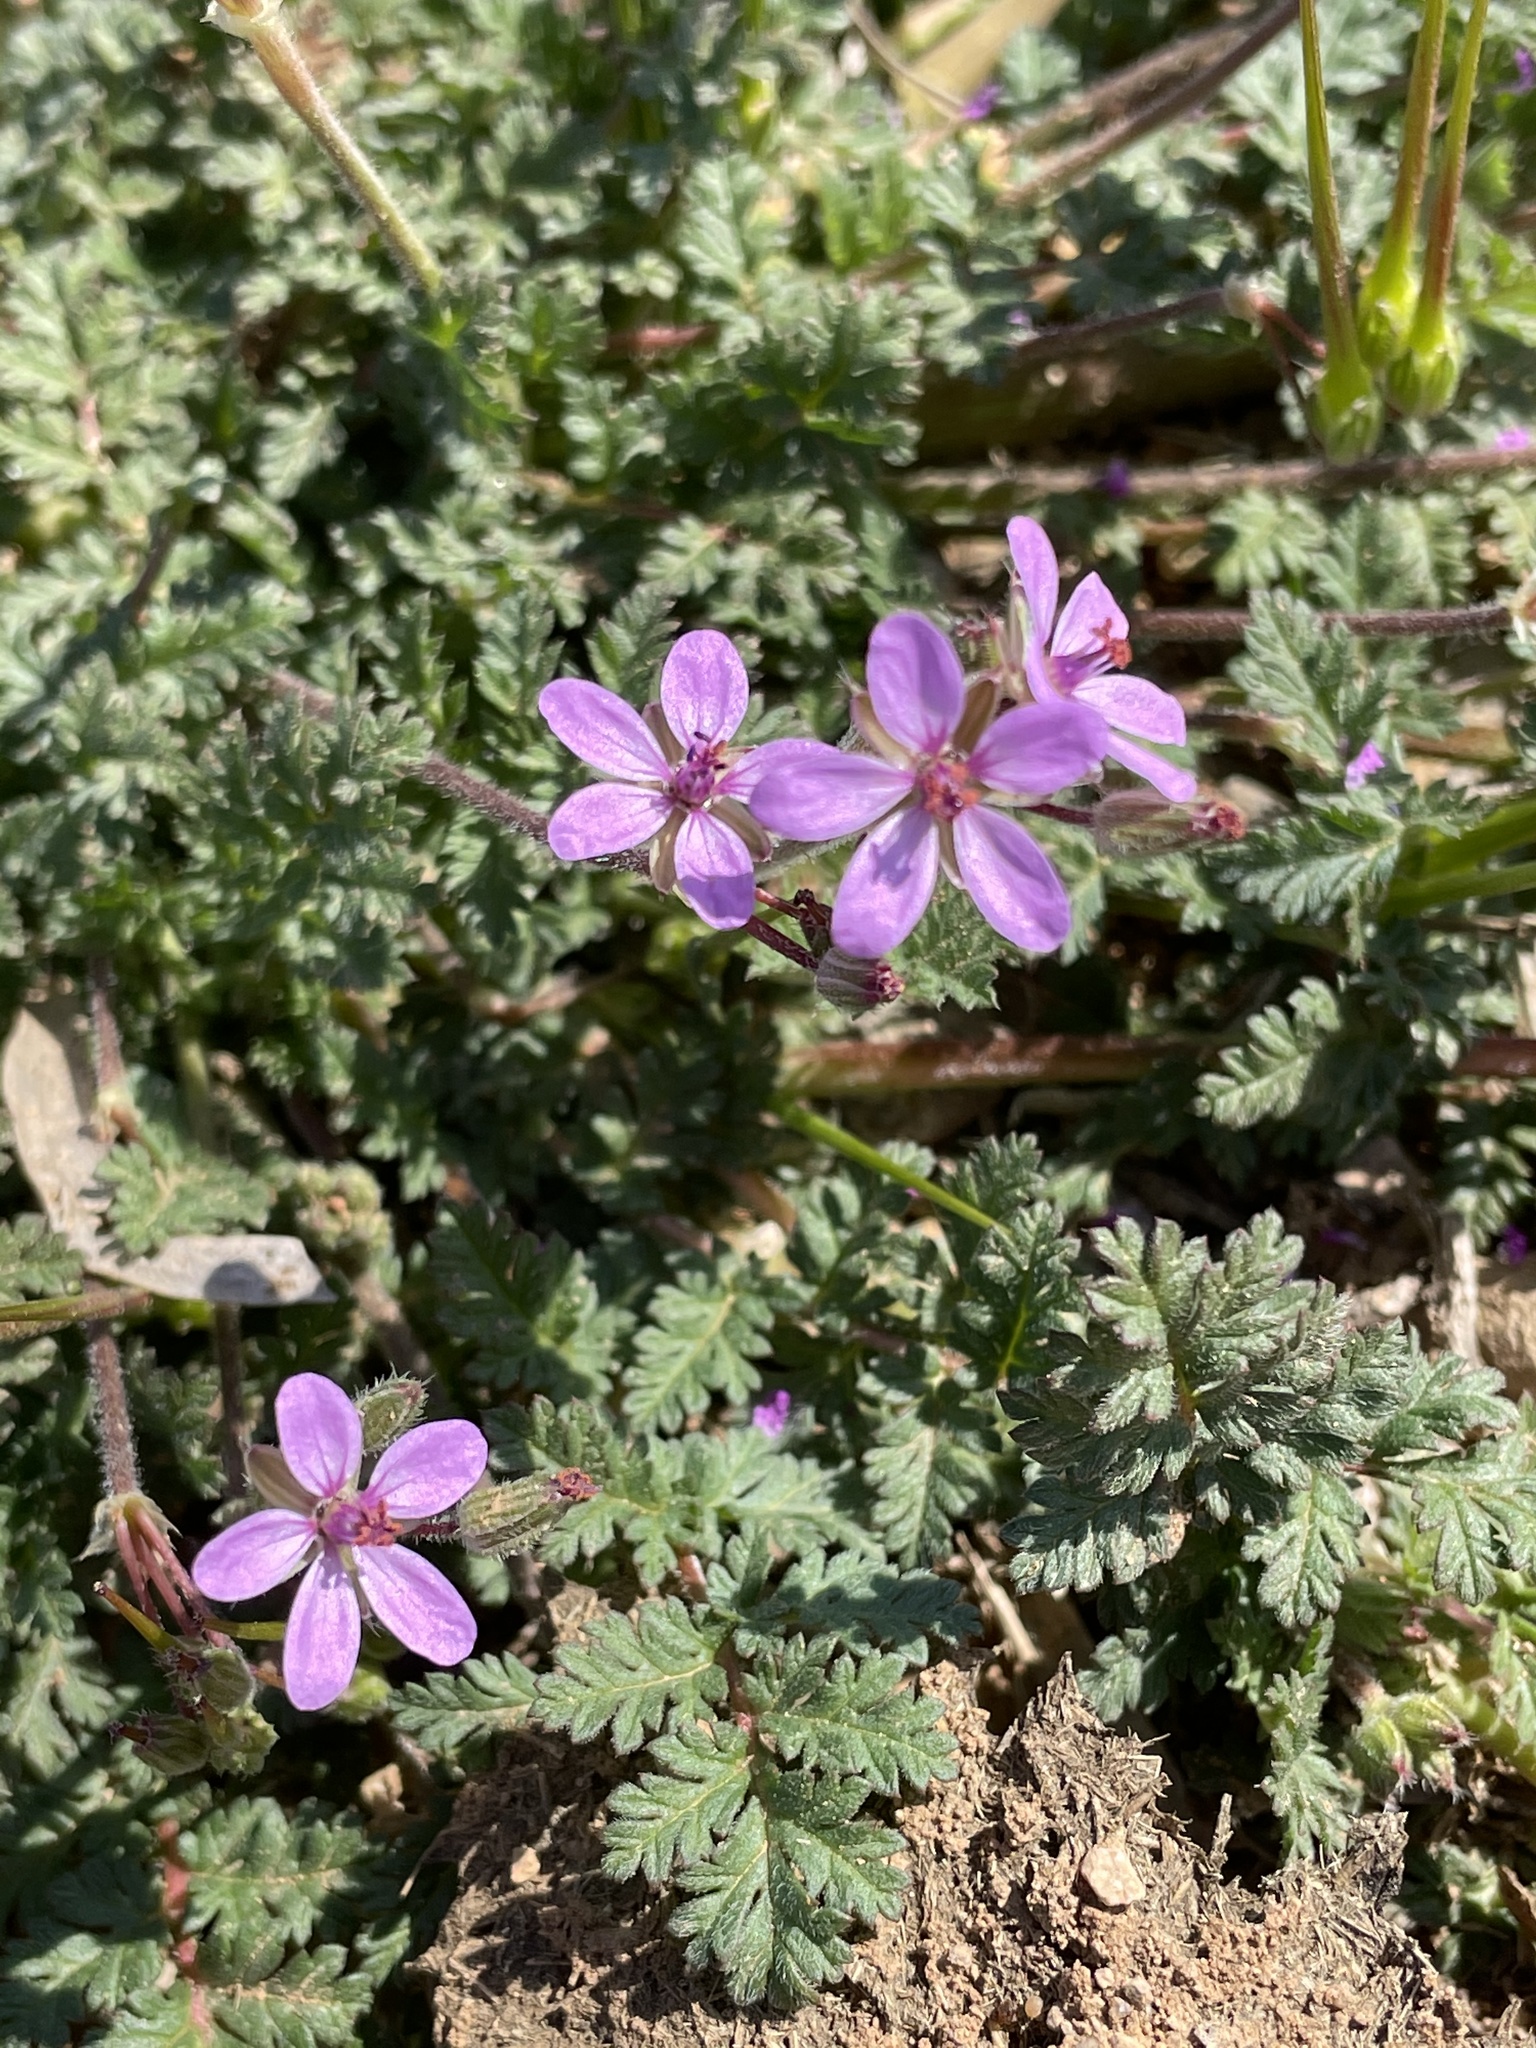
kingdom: Plantae
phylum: Tracheophyta
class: Magnoliopsida
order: Geraniales
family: Geraniaceae
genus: Erodium
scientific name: Erodium cicutarium
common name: Common stork's-bill
